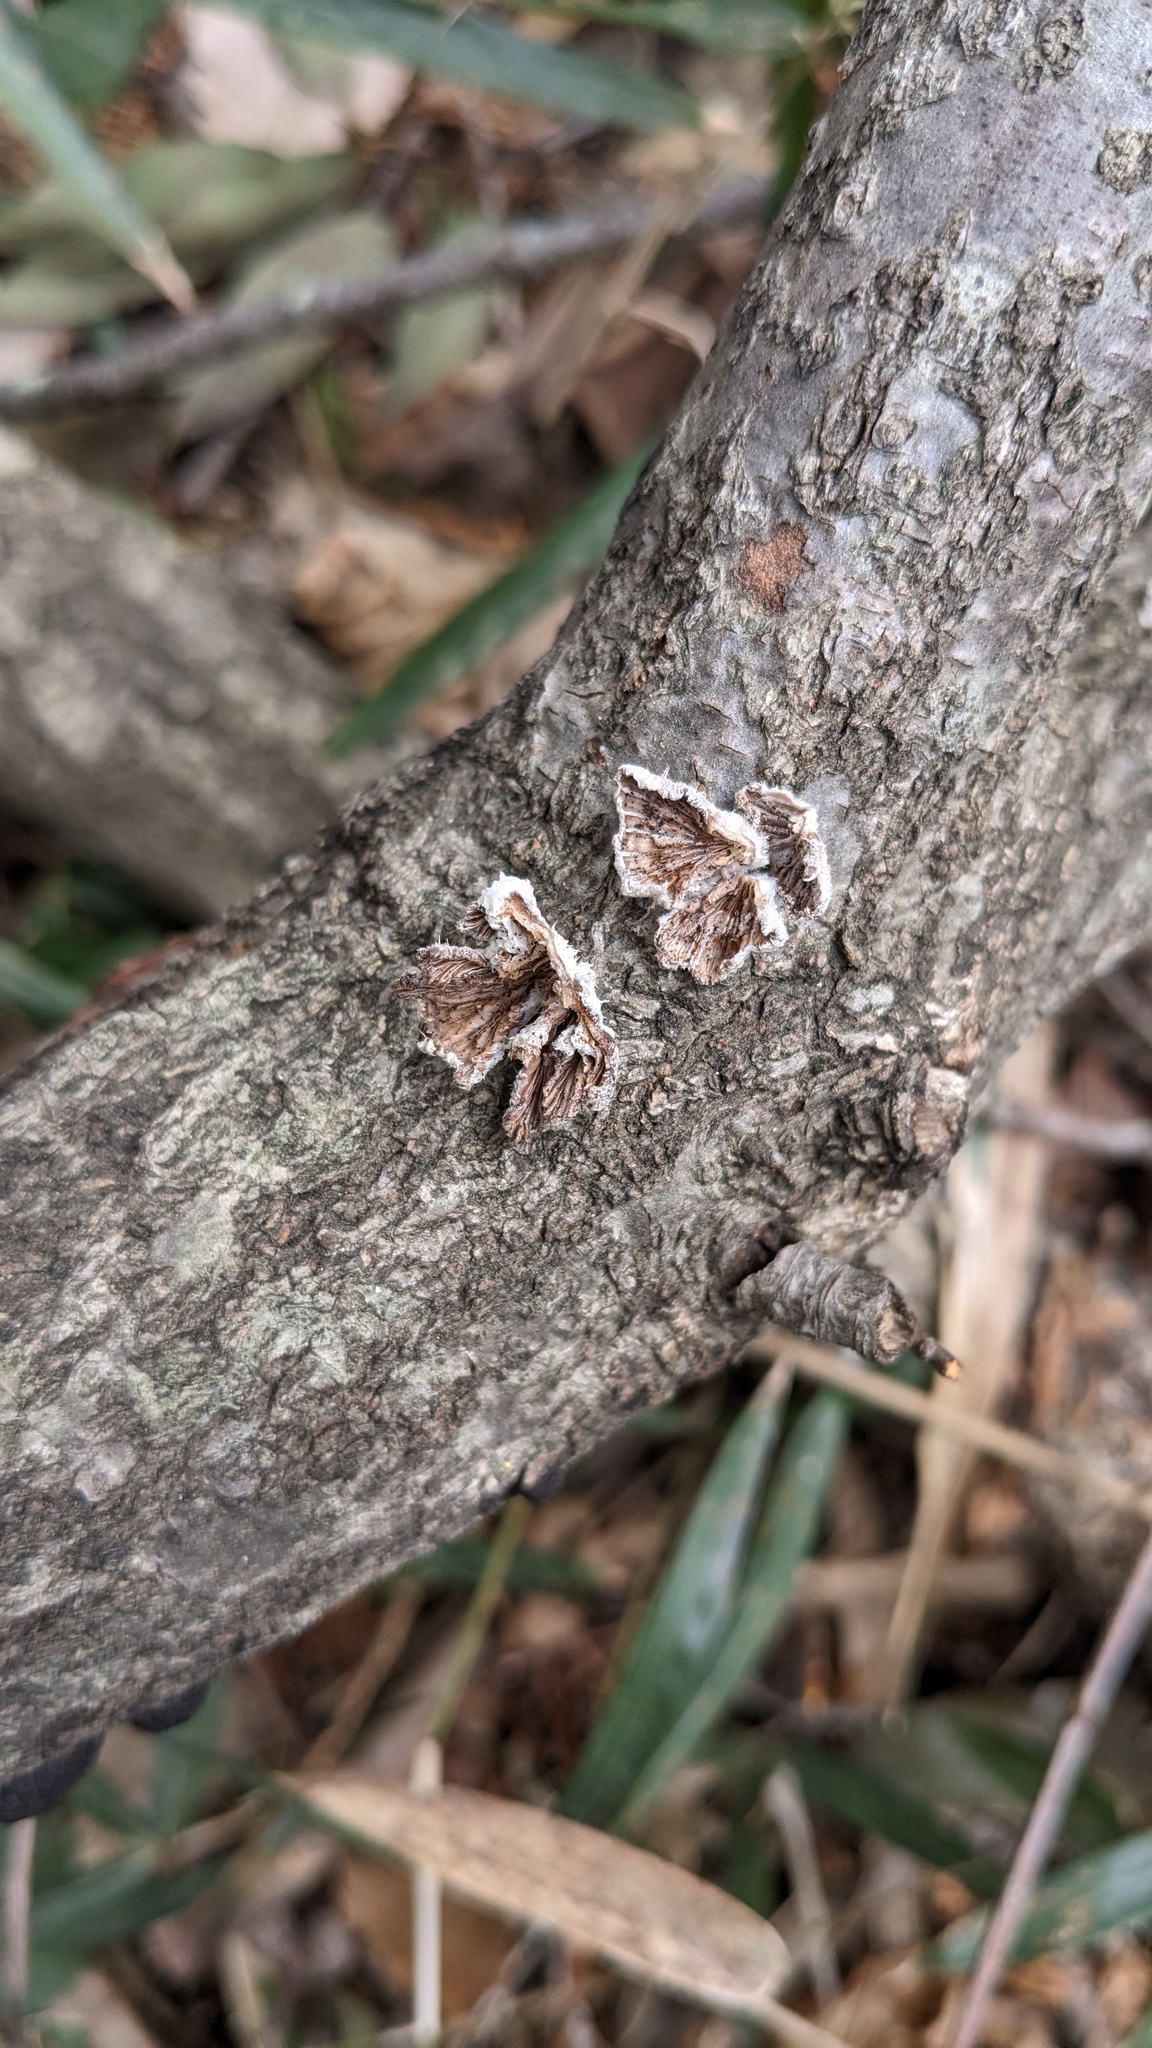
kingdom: Fungi
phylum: Basidiomycota
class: Agaricomycetes
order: Agaricales
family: Schizophyllaceae
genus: Schizophyllum
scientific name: Schizophyllum commune
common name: Common porecrust
